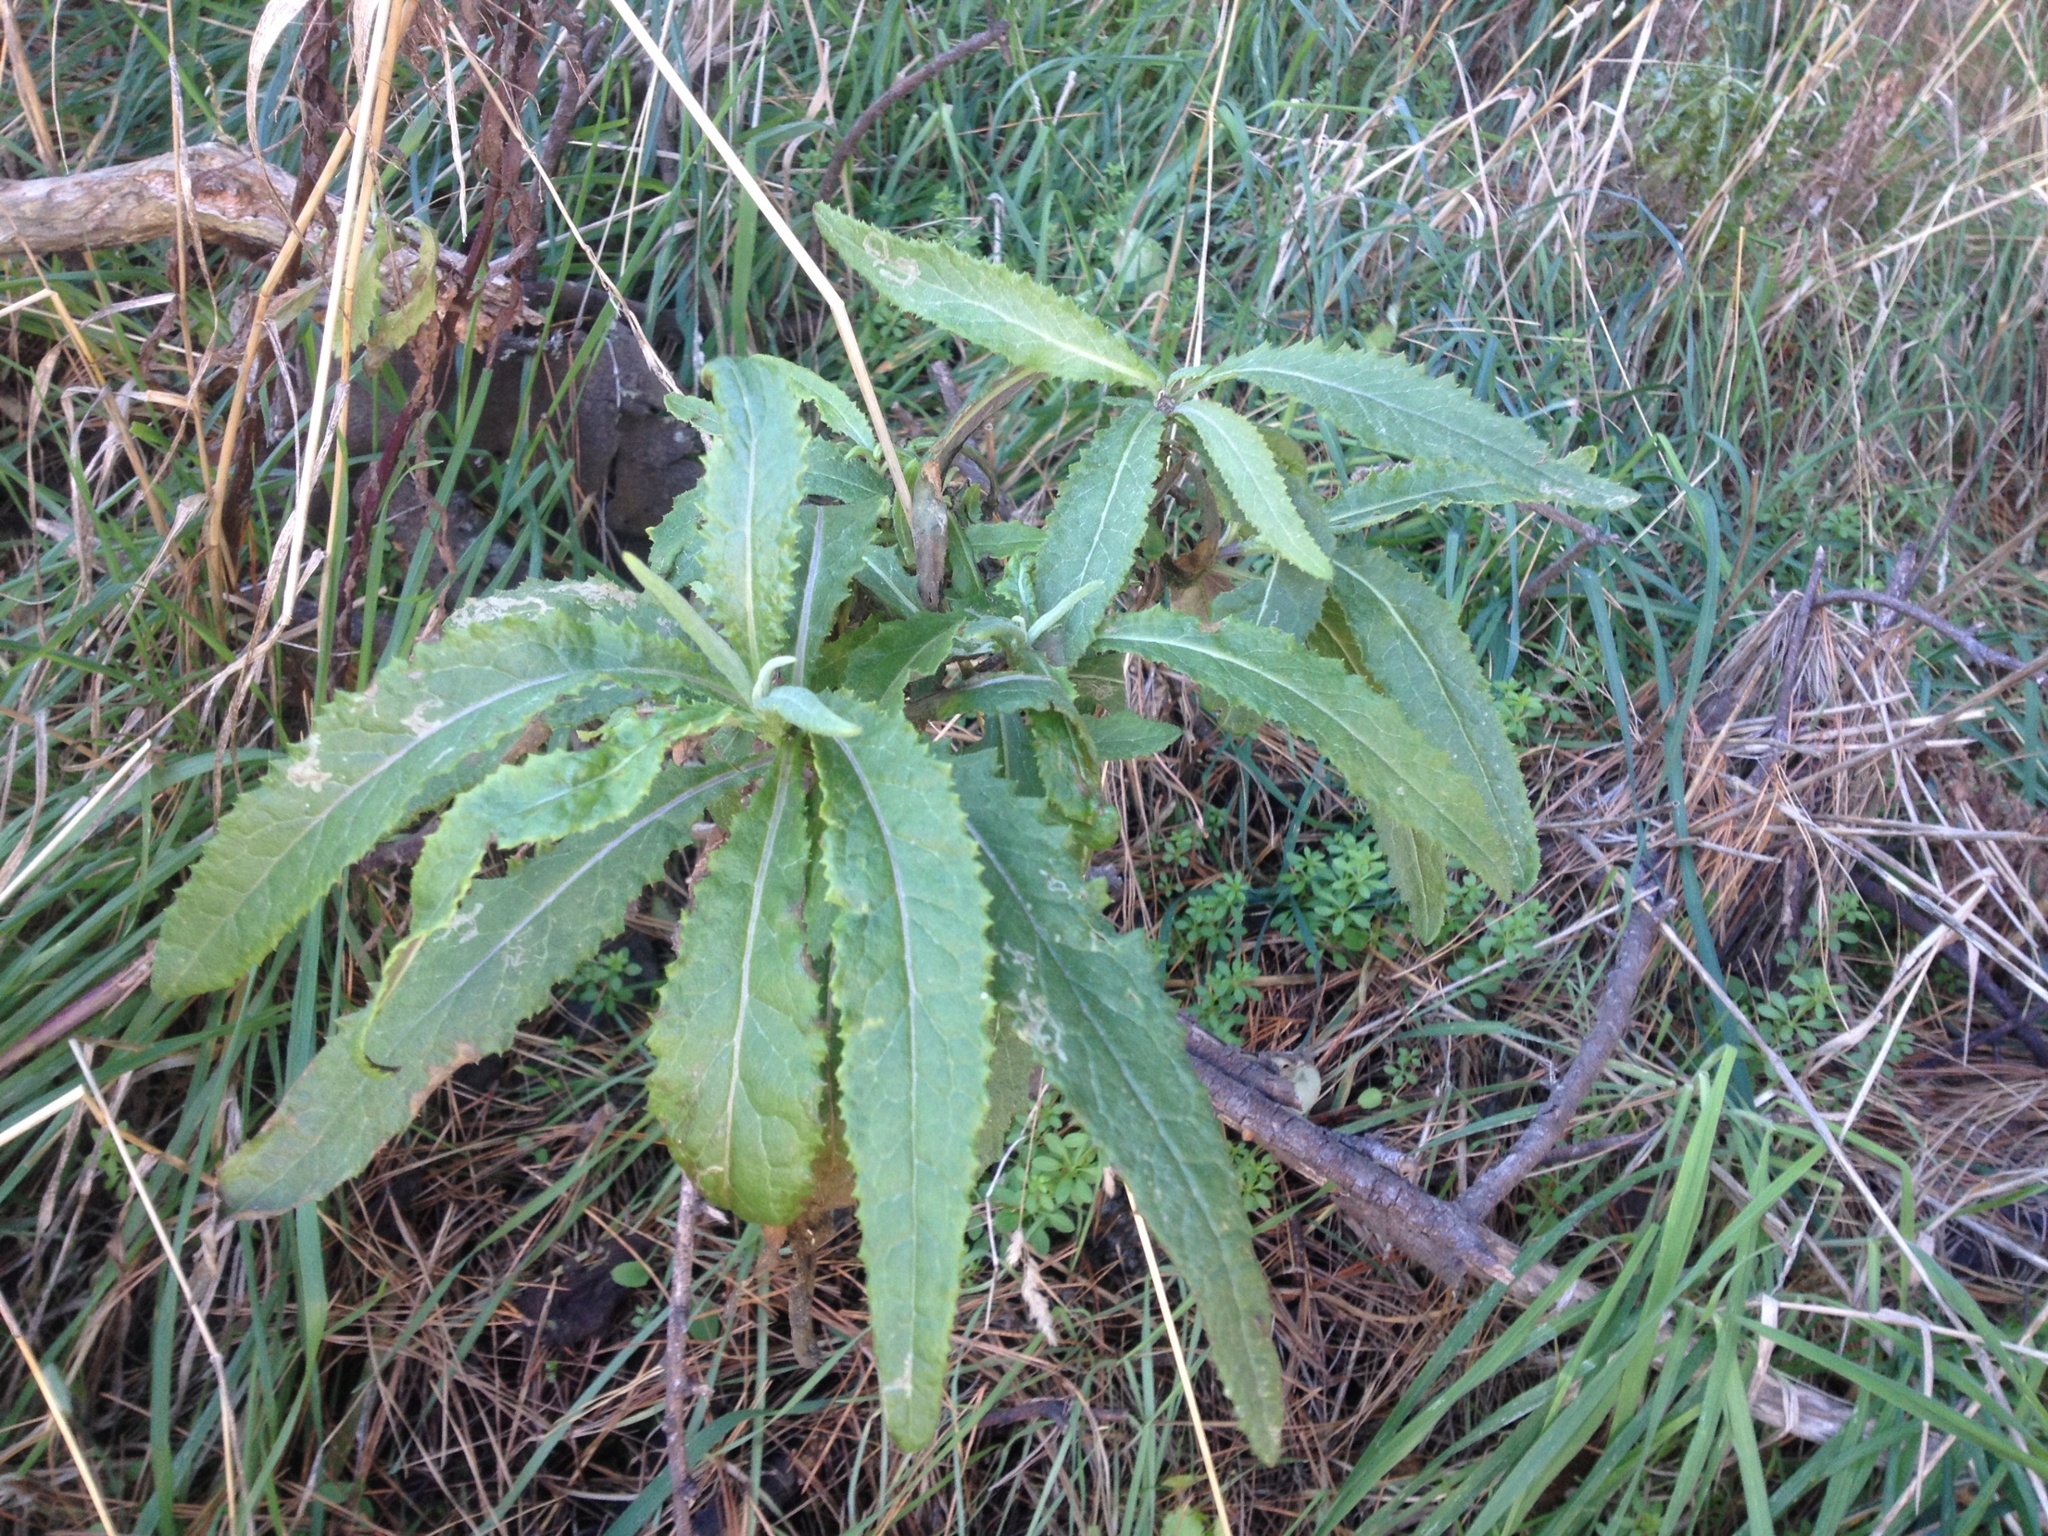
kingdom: Plantae
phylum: Tracheophyta
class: Magnoliopsida
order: Asterales
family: Asteraceae
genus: Senecio
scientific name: Senecio minimus
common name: Toothed fireweed
